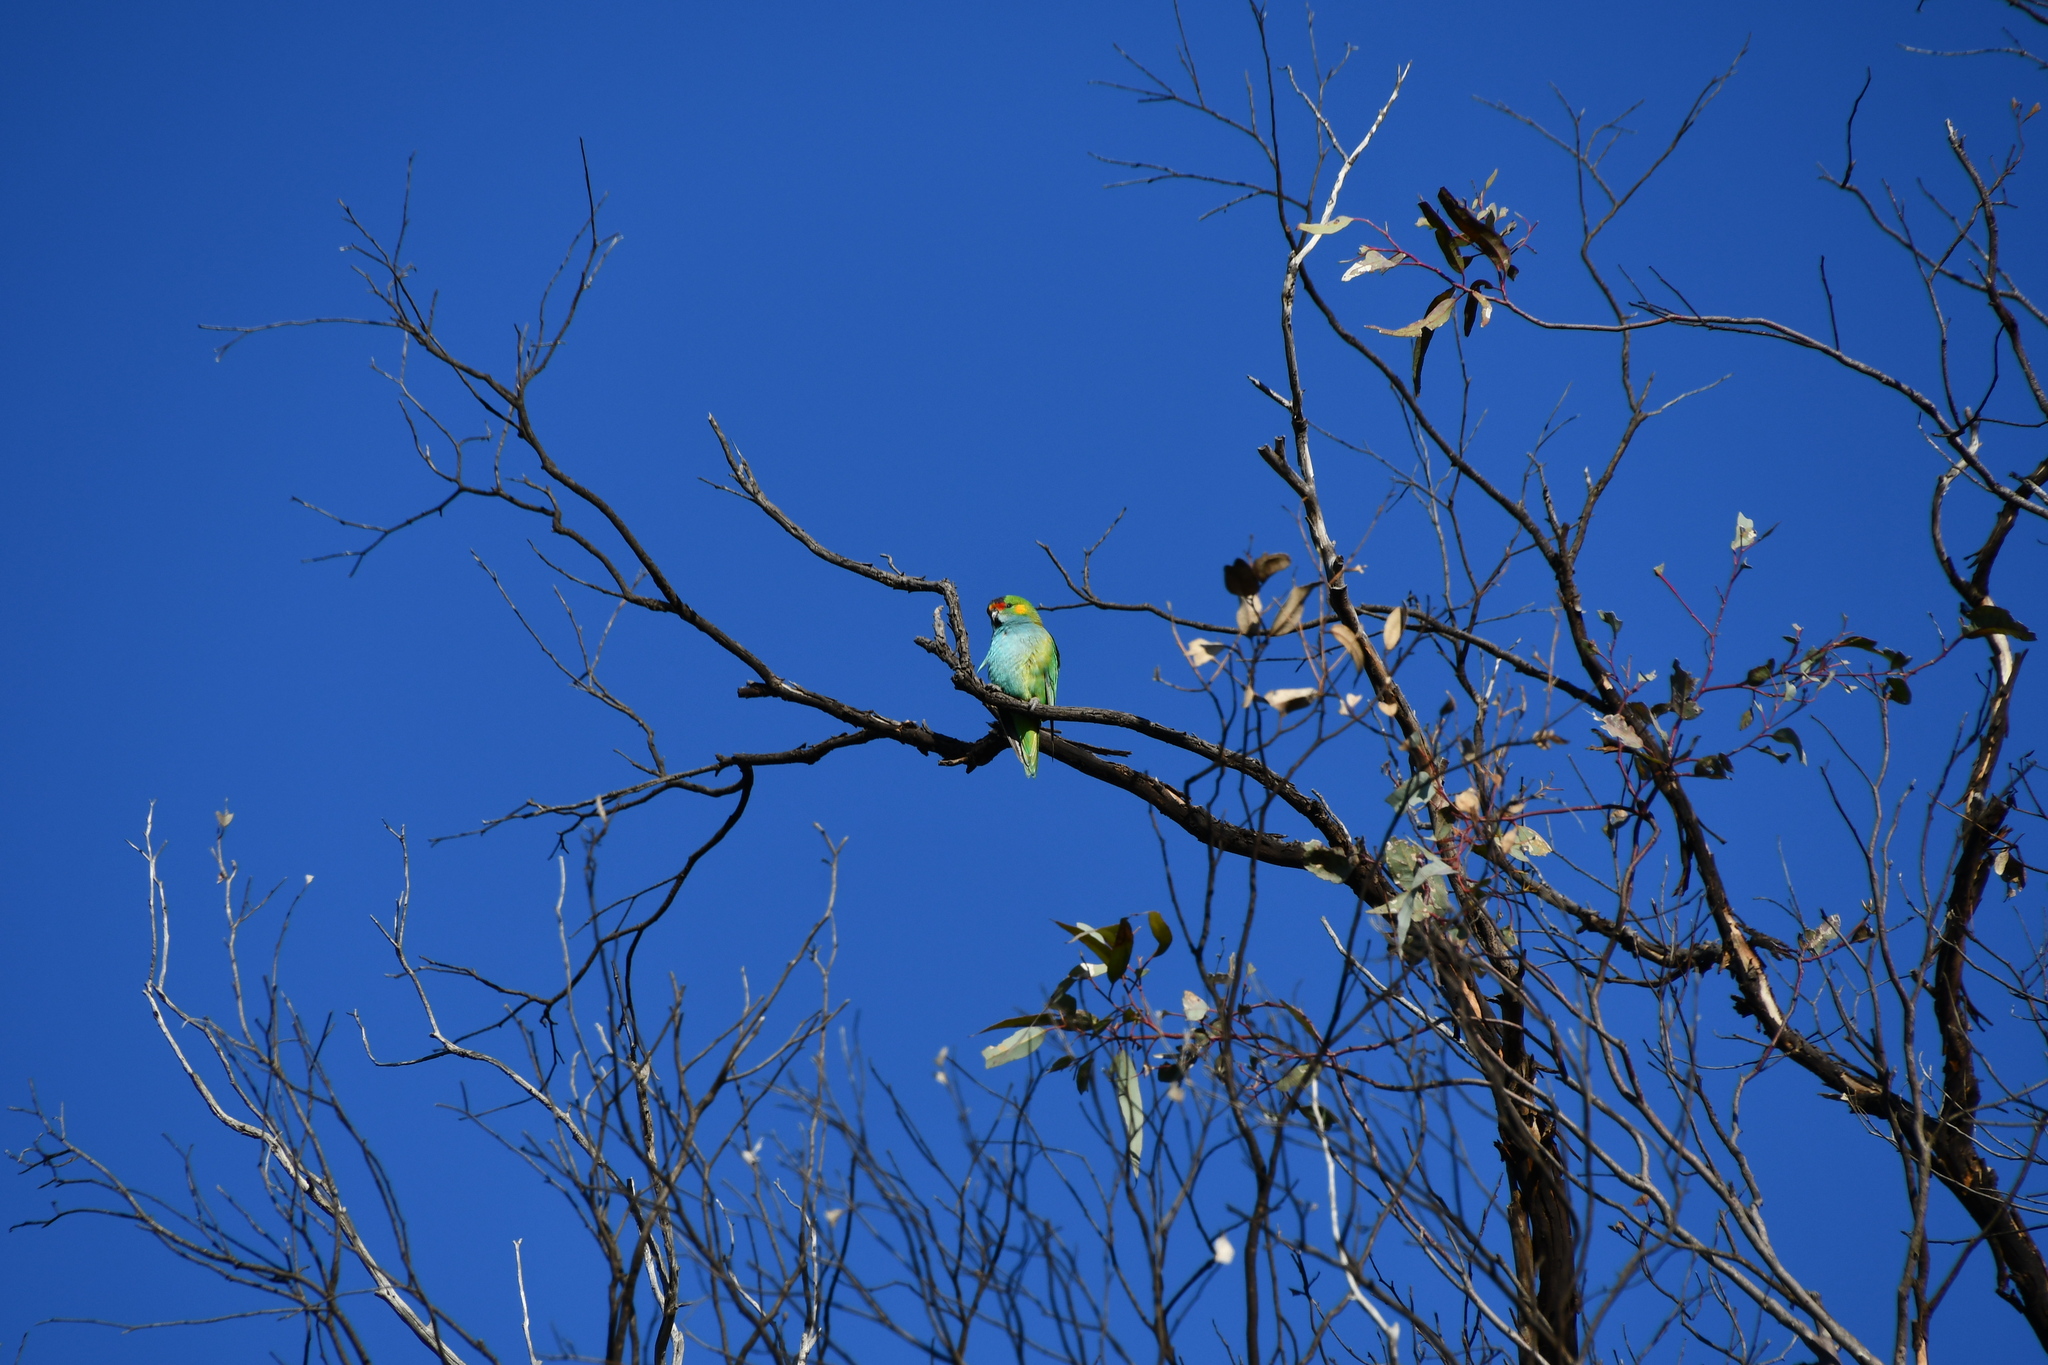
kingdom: Animalia
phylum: Chordata
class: Aves
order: Psittaciformes
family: Psittaculidae
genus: Parvipsitta
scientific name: Parvipsitta porphyrocephala
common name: Purple-crowned lorikeet
